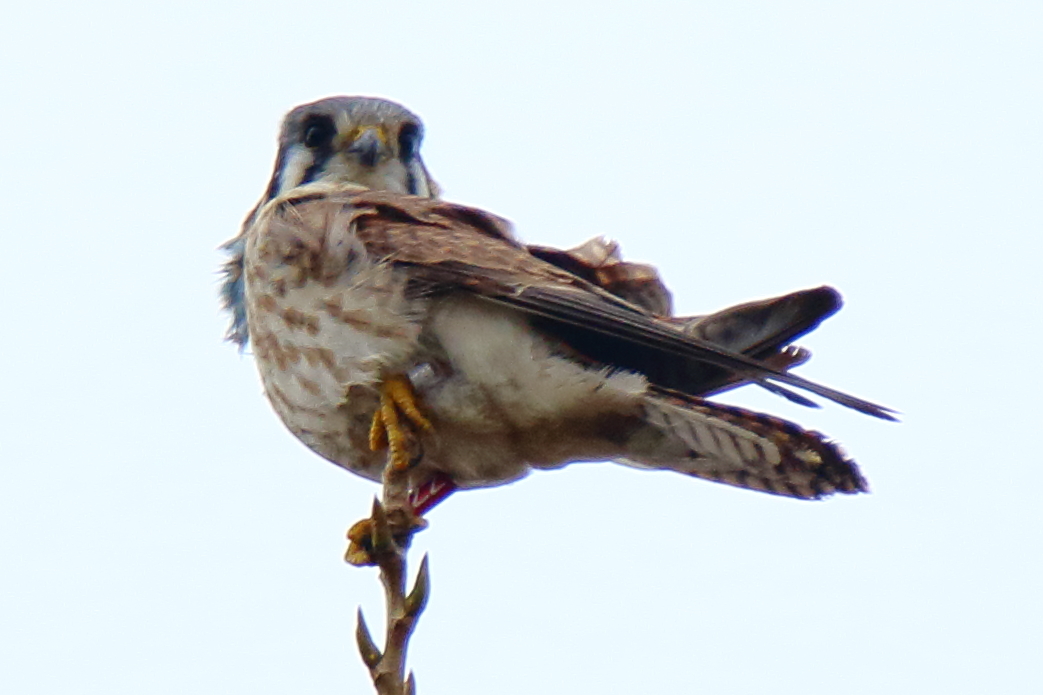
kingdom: Animalia
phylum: Chordata
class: Aves
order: Falconiformes
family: Falconidae
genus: Falco
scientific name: Falco sparverius
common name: American kestrel
